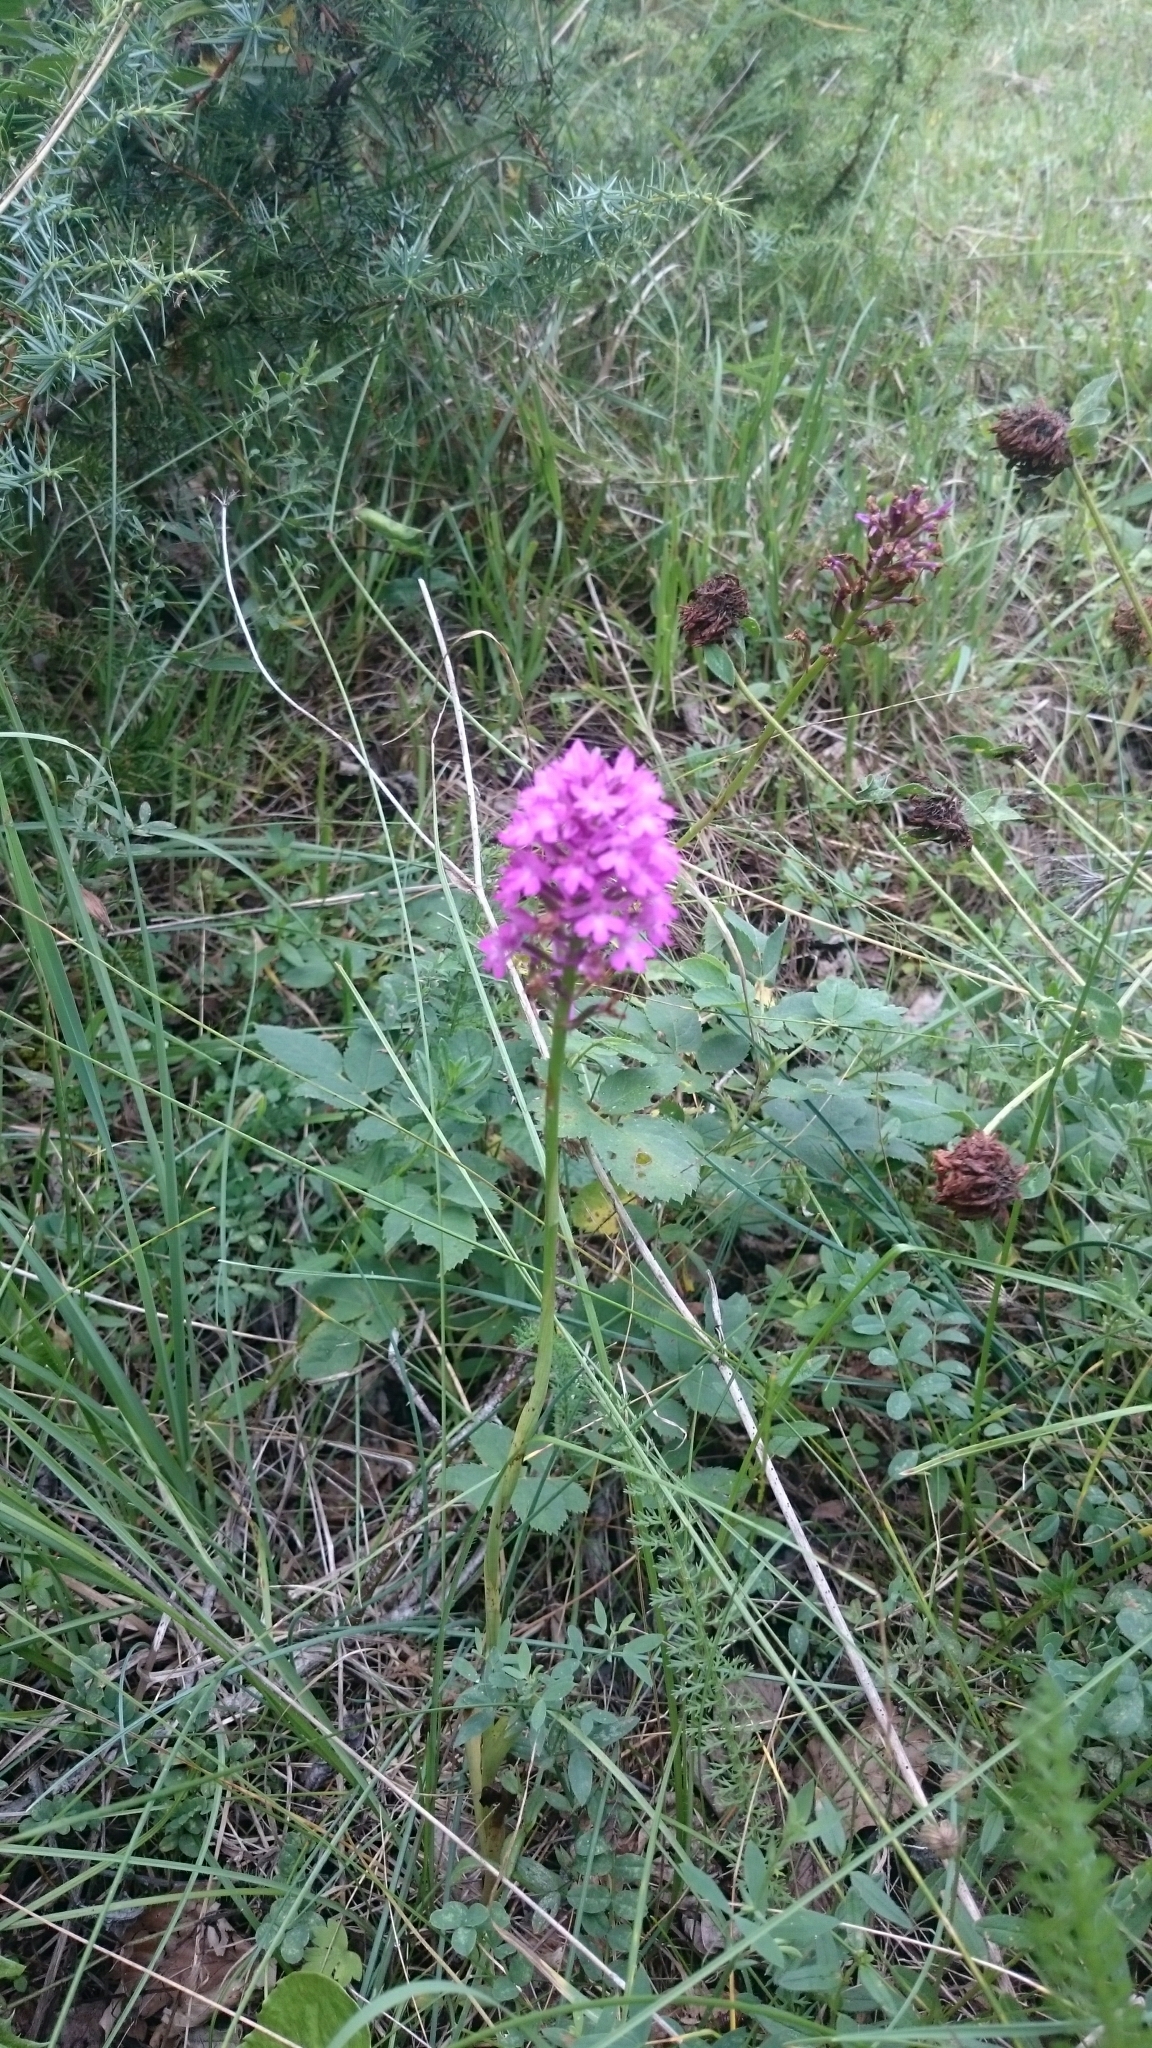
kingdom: Plantae
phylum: Tracheophyta
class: Liliopsida
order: Asparagales
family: Orchidaceae
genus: Anacamptis
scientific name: Anacamptis pyramidalis
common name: Pyramidal orchid
